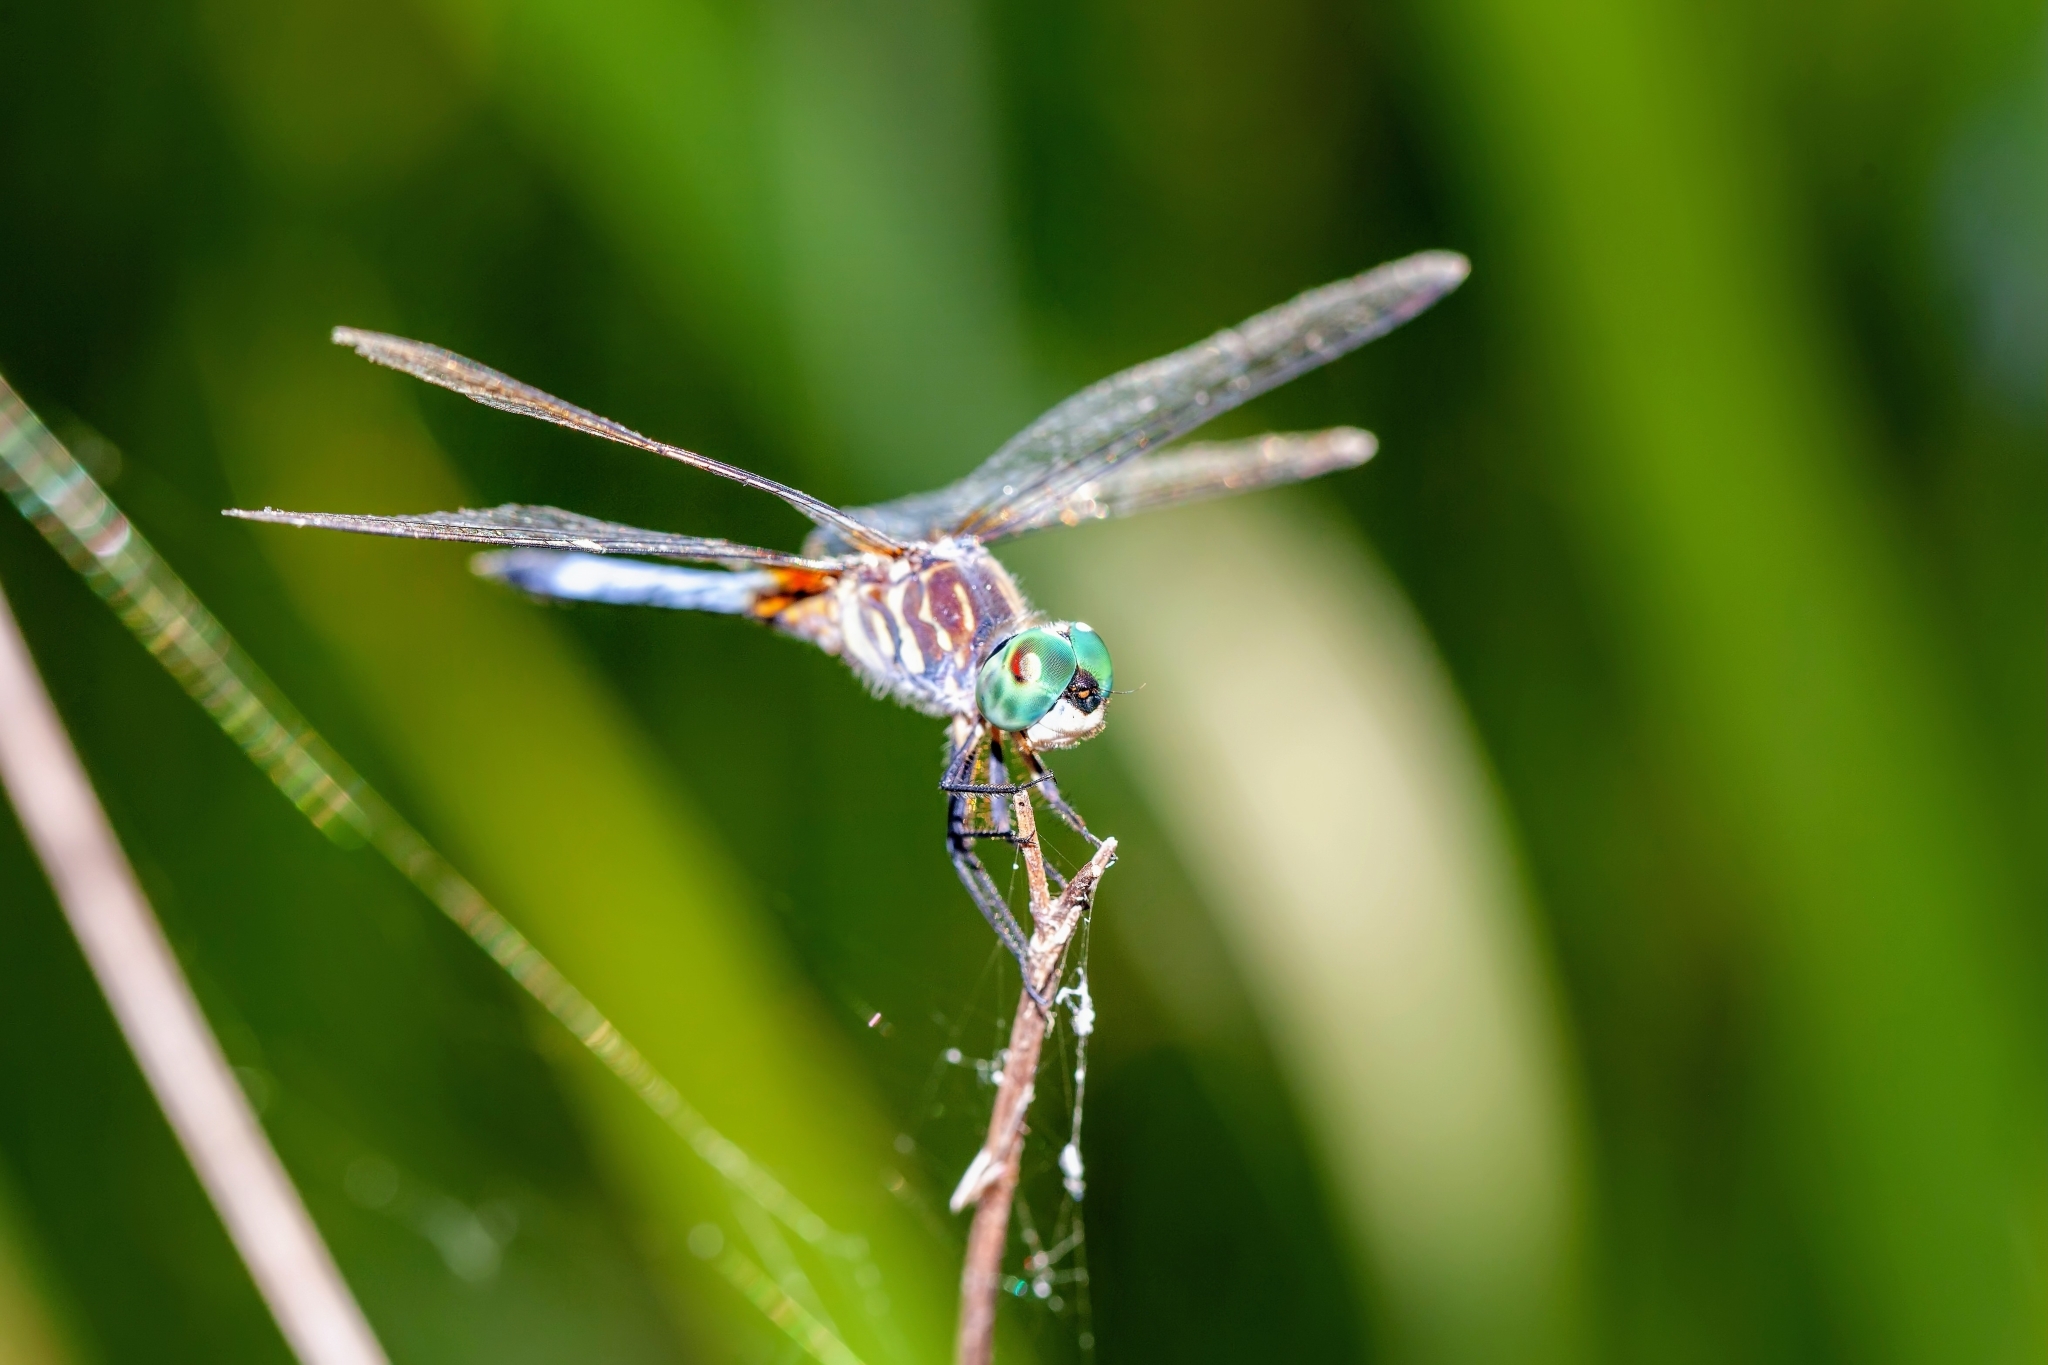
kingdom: Animalia
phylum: Arthropoda
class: Insecta
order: Odonata
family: Libellulidae
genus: Pachydiplax
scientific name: Pachydiplax longipennis
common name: Blue dasher
